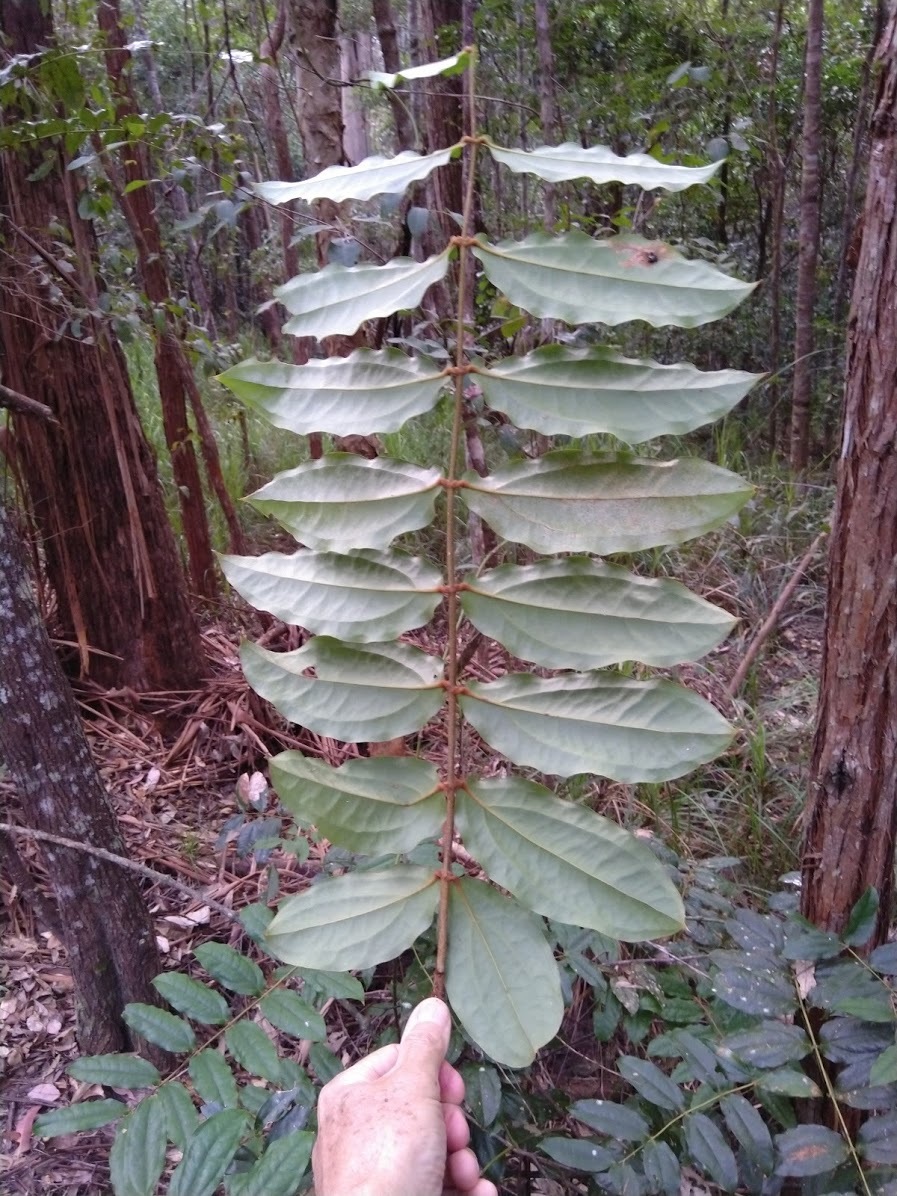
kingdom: Plantae
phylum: Tracheophyta
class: Liliopsida
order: Liliales
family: Ripogonaceae
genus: Ripogonum
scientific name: Ripogonum elseyanum
